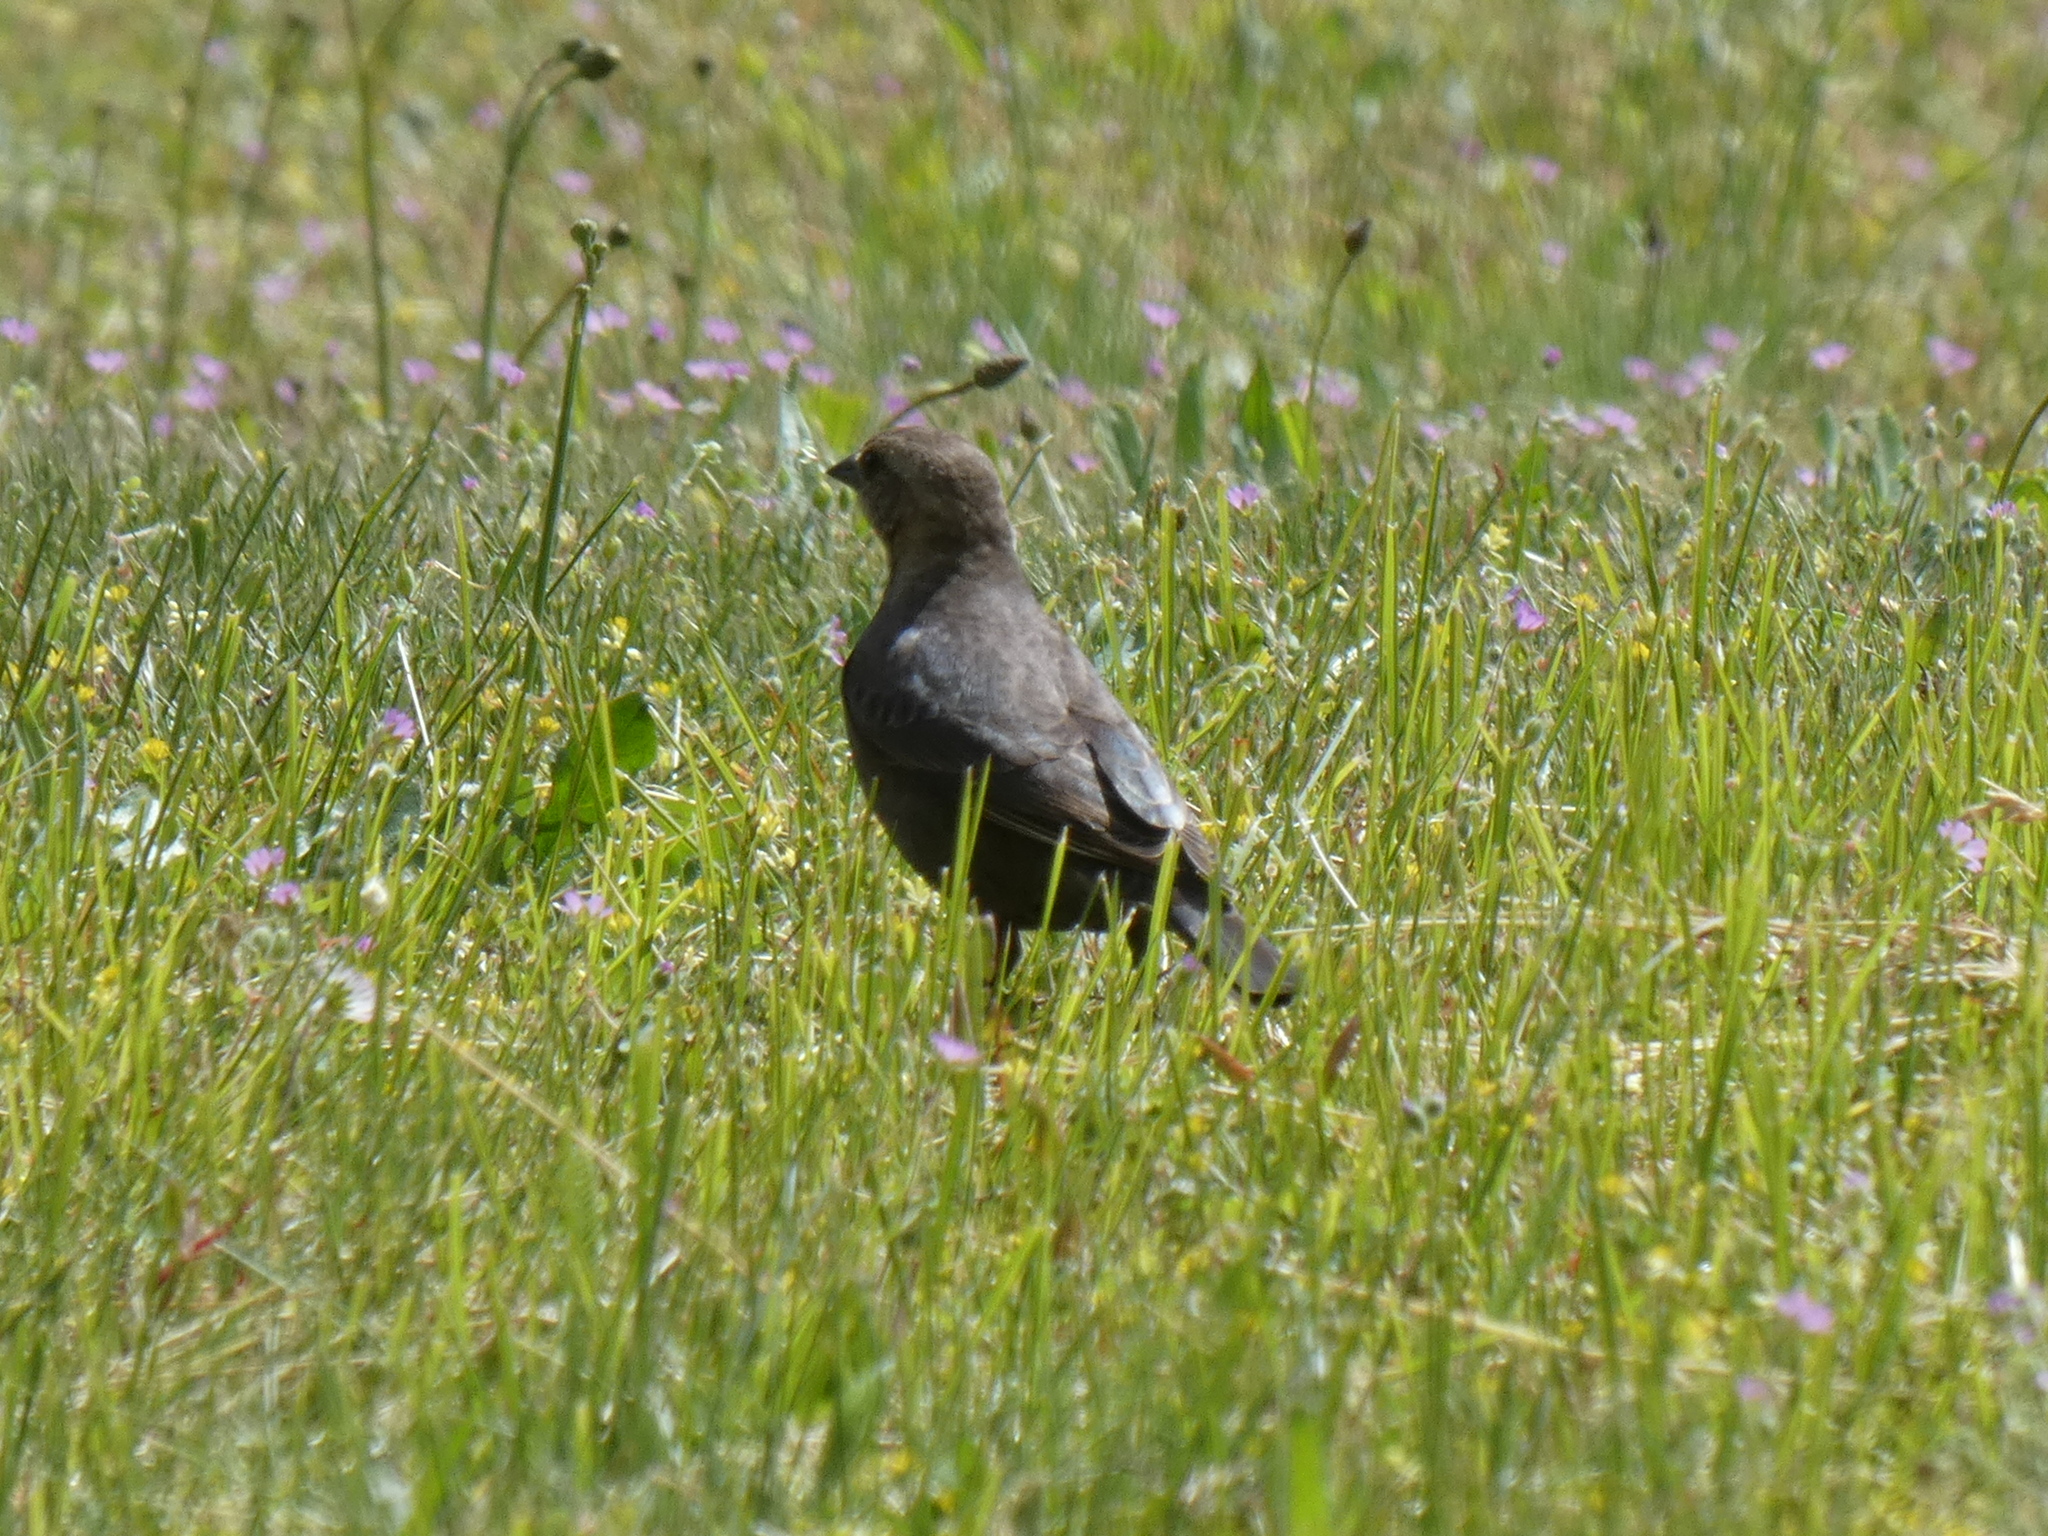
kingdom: Animalia
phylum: Chordata
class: Aves
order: Passeriformes
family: Icteridae
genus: Molothrus
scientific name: Molothrus ater
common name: Brown-headed cowbird
